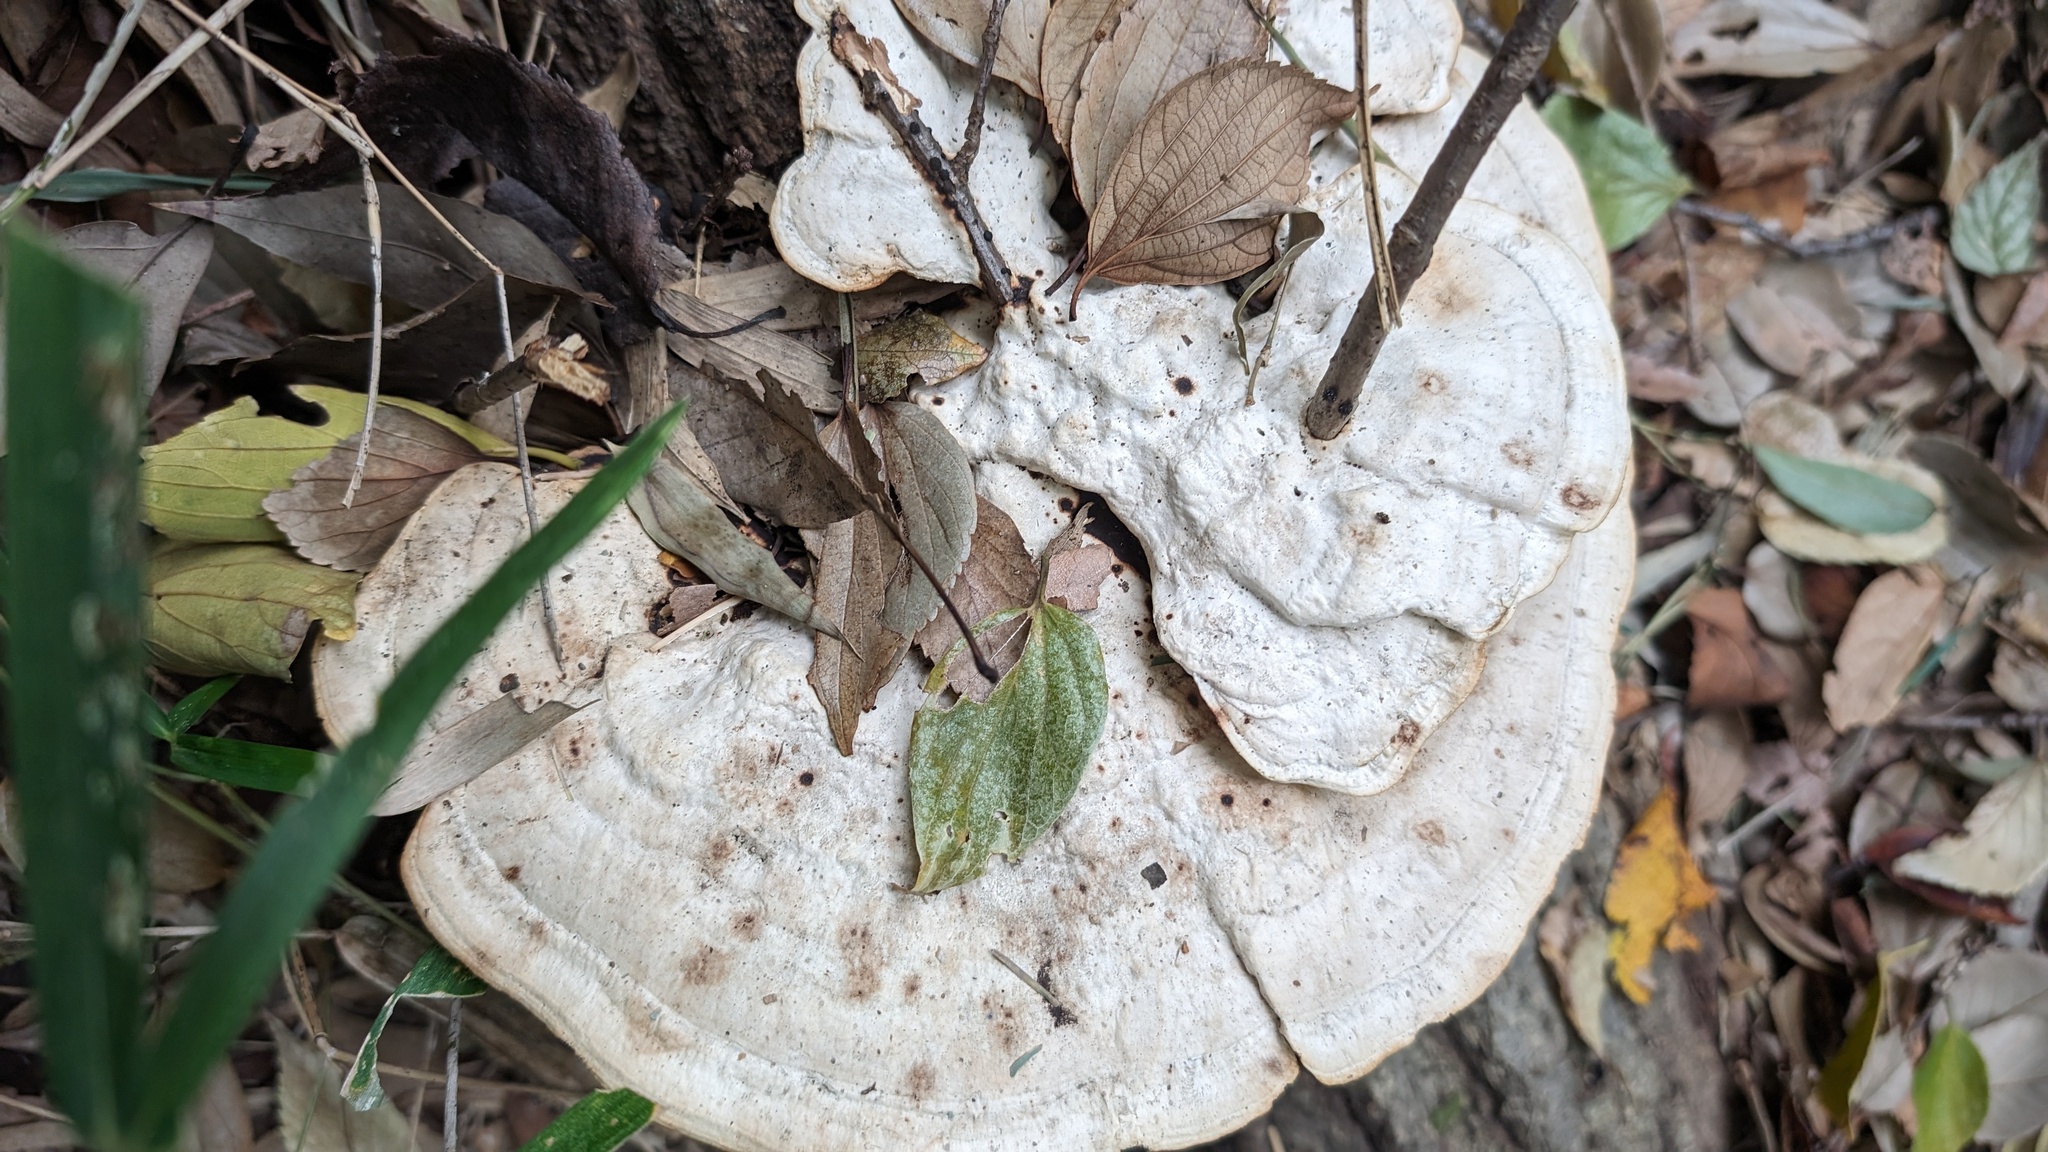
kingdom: Fungi
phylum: Basidiomycota
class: Agaricomycetes
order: Polyporales
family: Polyporaceae
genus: Trametes
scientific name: Trametes elegans
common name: White maze polypore
